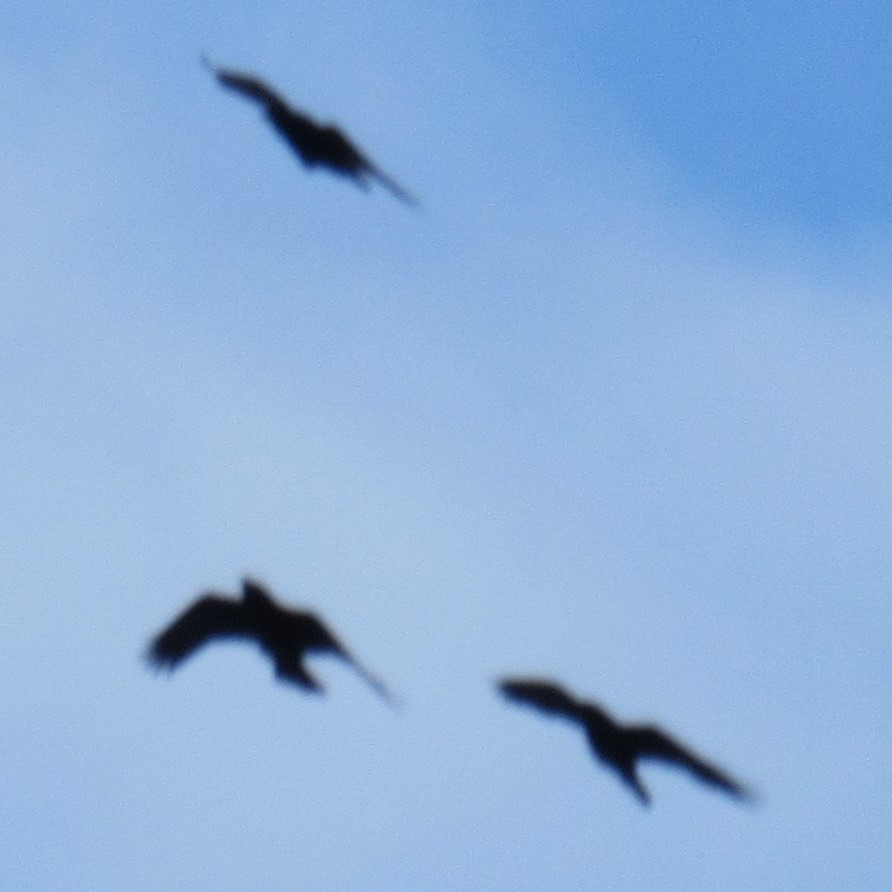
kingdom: Animalia
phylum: Chordata
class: Aves
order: Passeriformes
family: Corvidae
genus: Corvus
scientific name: Corvus corax
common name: Common raven
